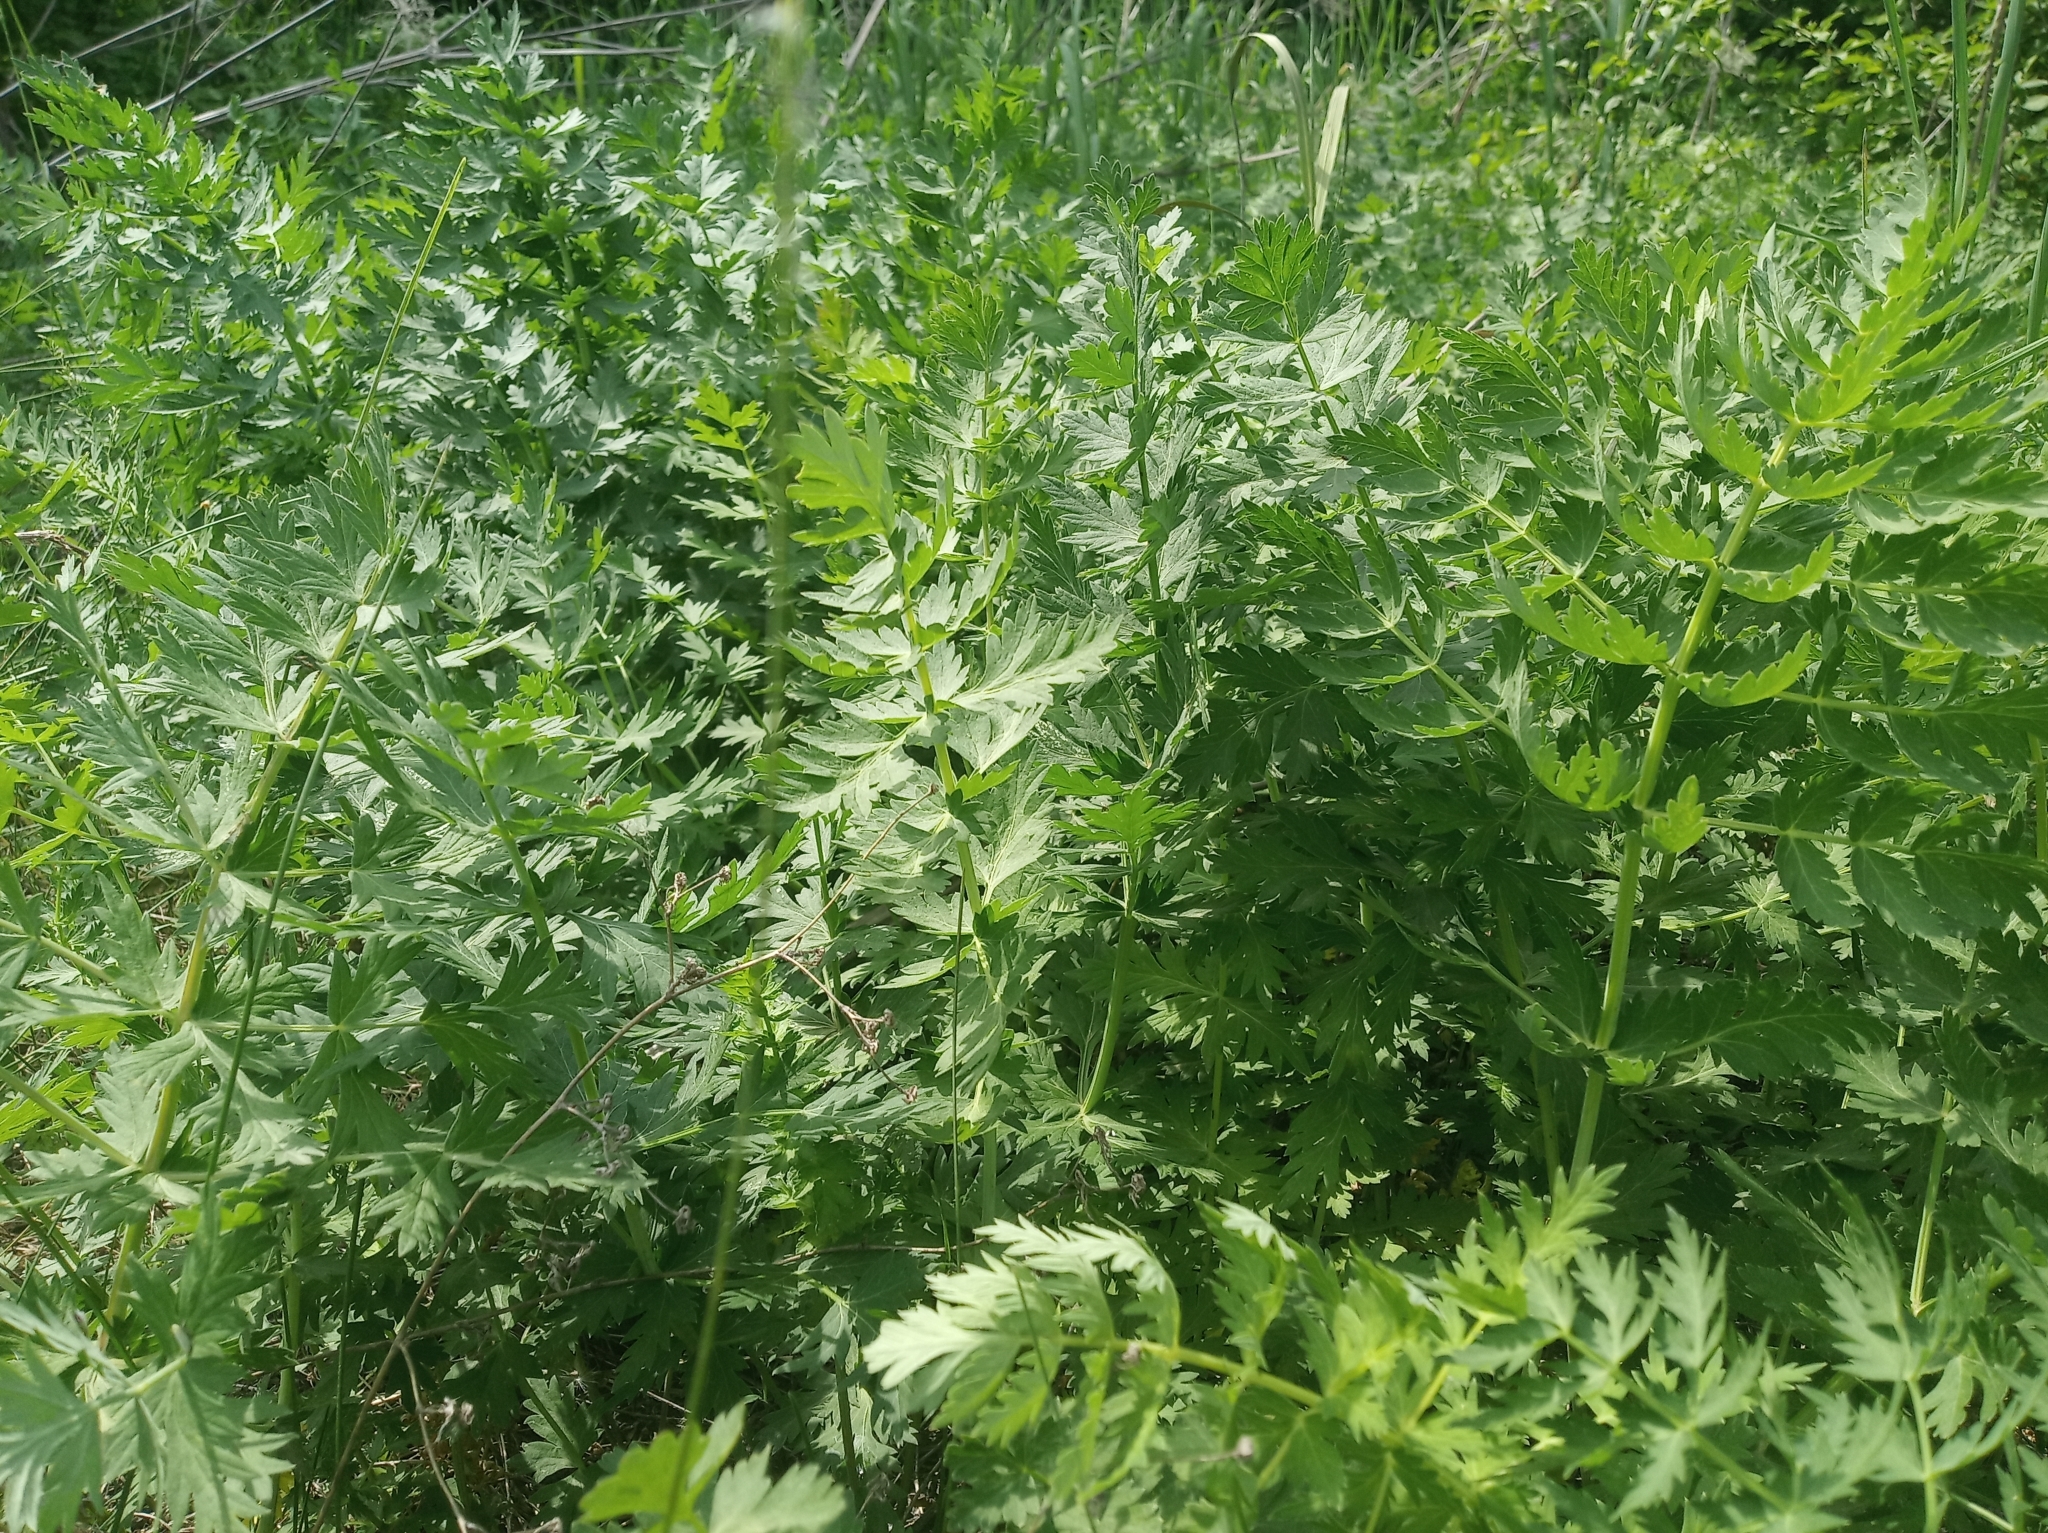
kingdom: Plantae
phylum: Tracheophyta
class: Magnoliopsida
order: Apiales
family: Apiaceae
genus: Seseli
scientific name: Seseli libanotis
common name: Mooncarrot
